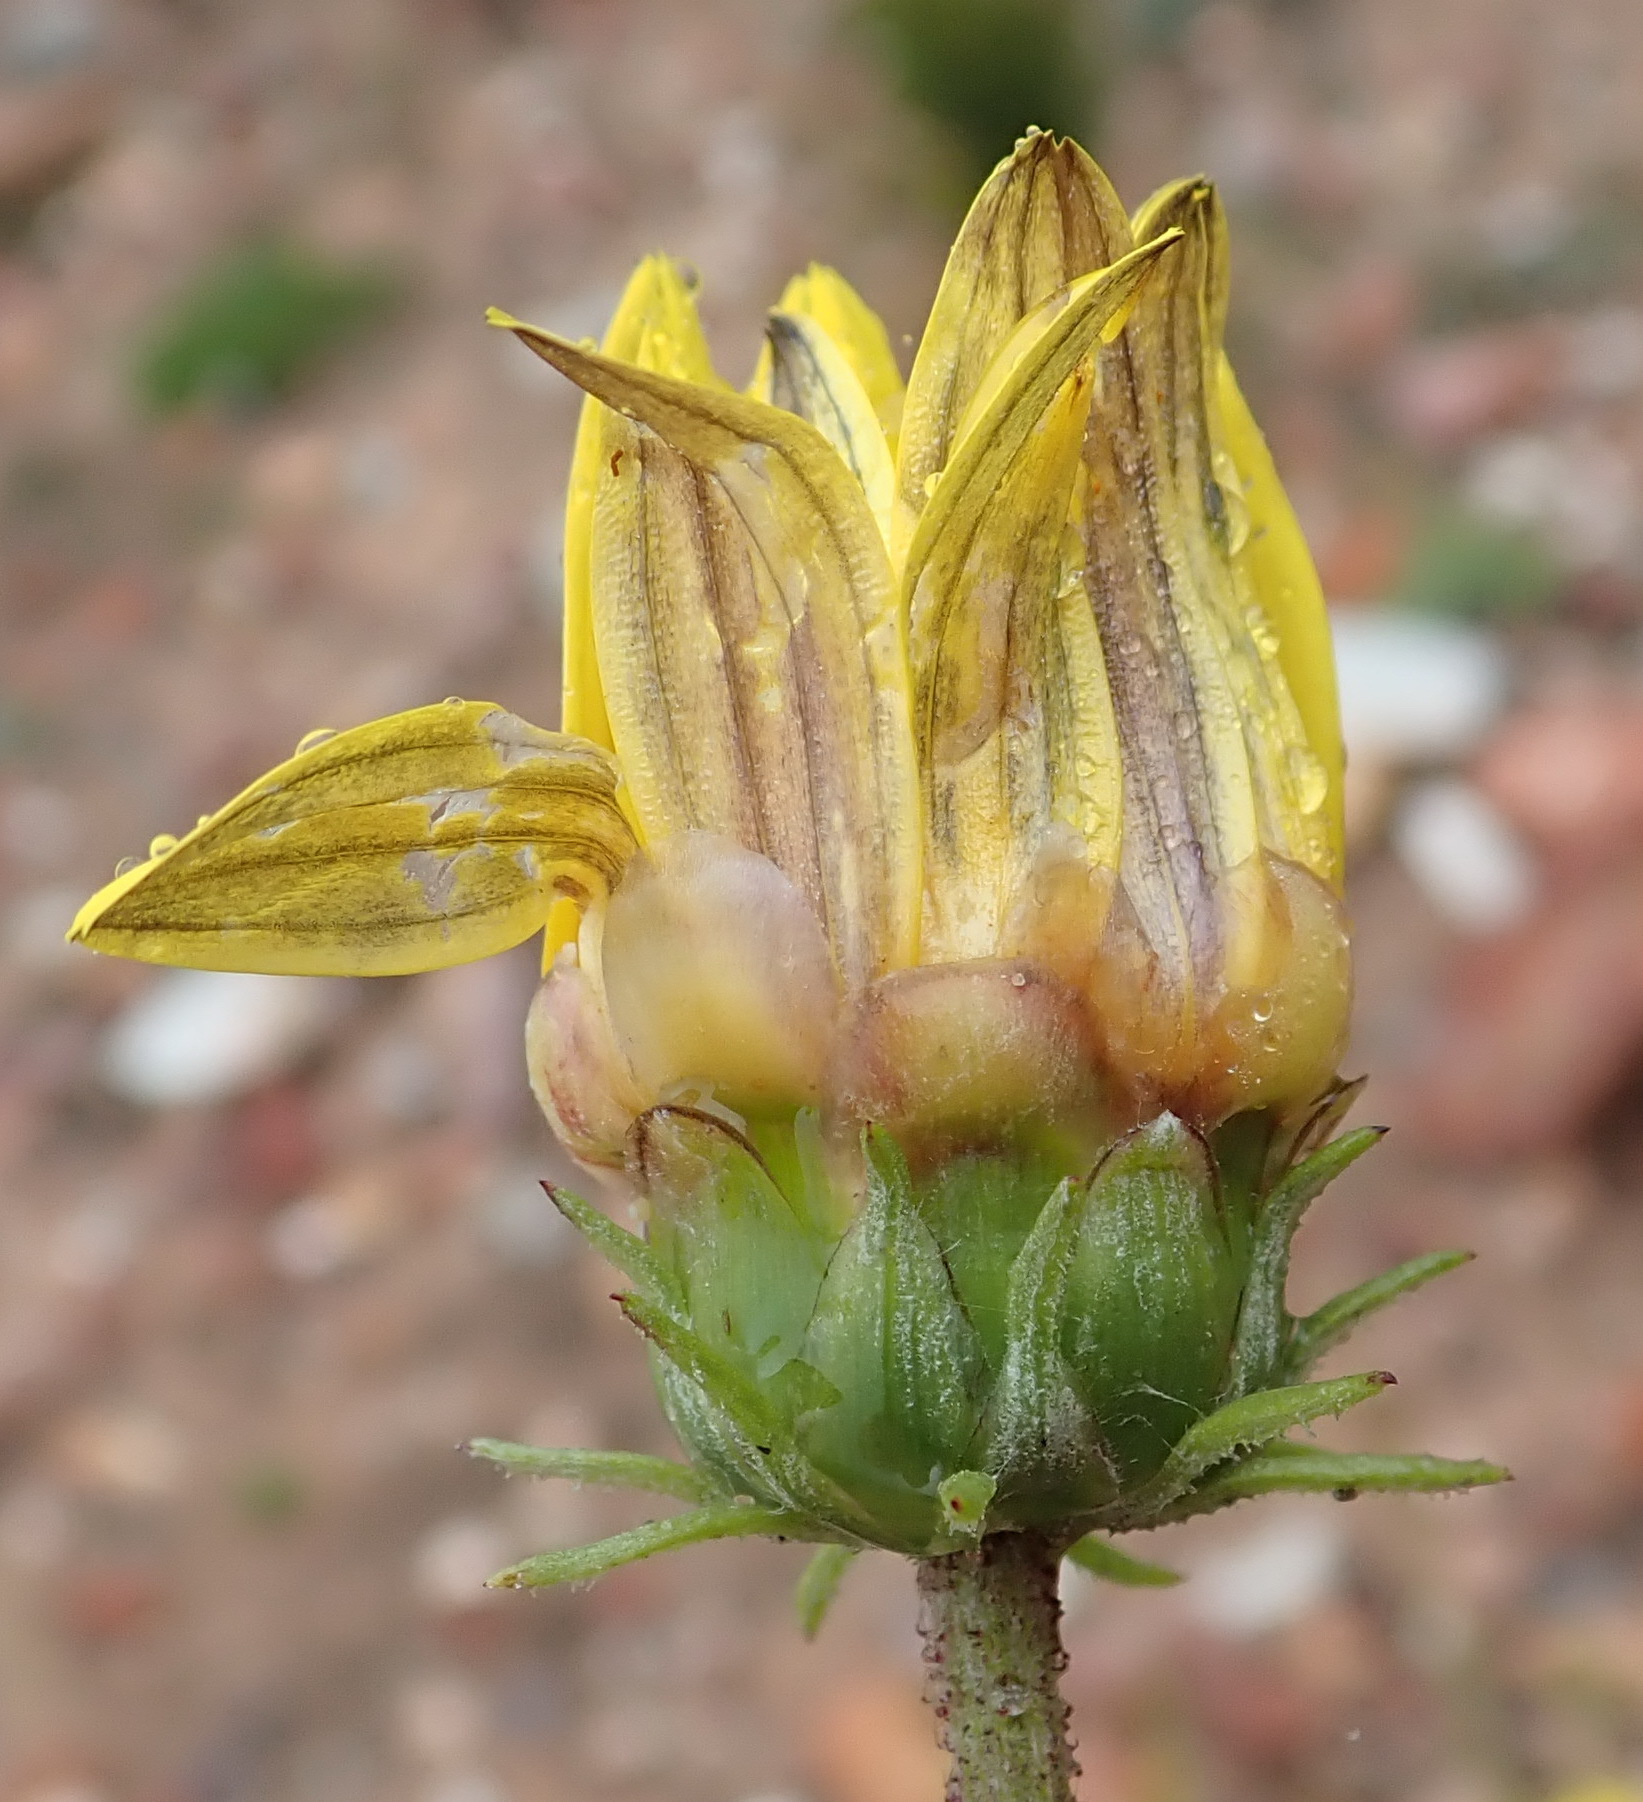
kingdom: Plantae
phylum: Tracheophyta
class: Magnoliopsida
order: Asterales
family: Asteraceae
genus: Arctotis
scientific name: Arctotis lanceolata
